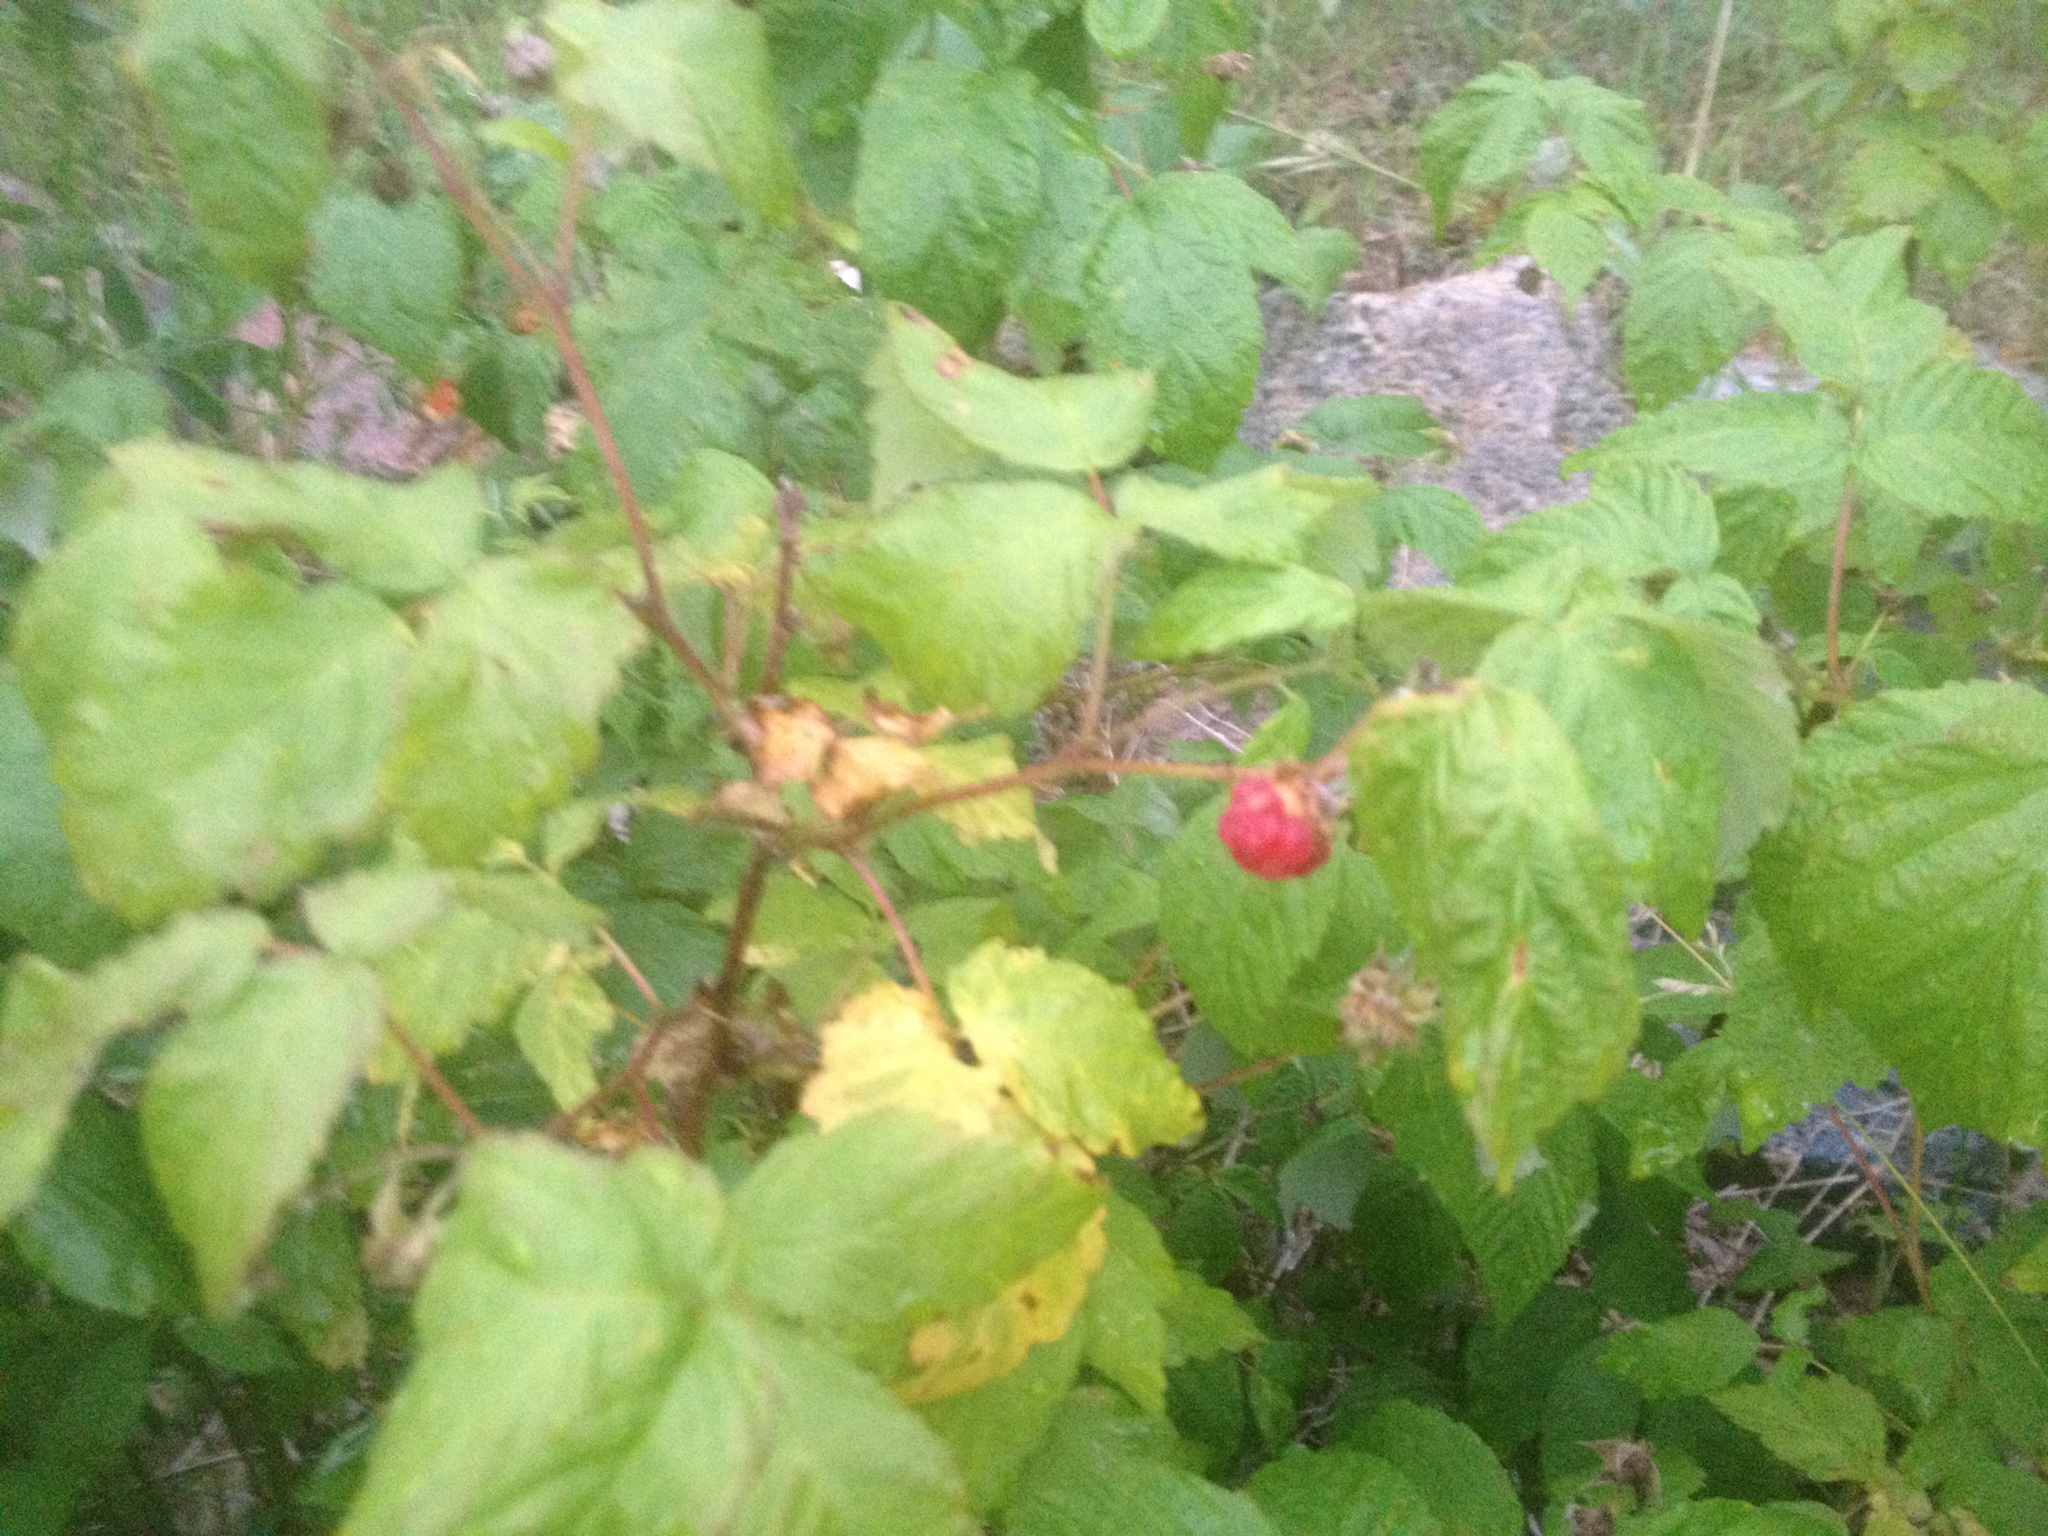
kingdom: Plantae
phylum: Tracheophyta
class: Magnoliopsida
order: Rosales
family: Rosaceae
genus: Rubus
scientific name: Rubus idaeus
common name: Raspberry
